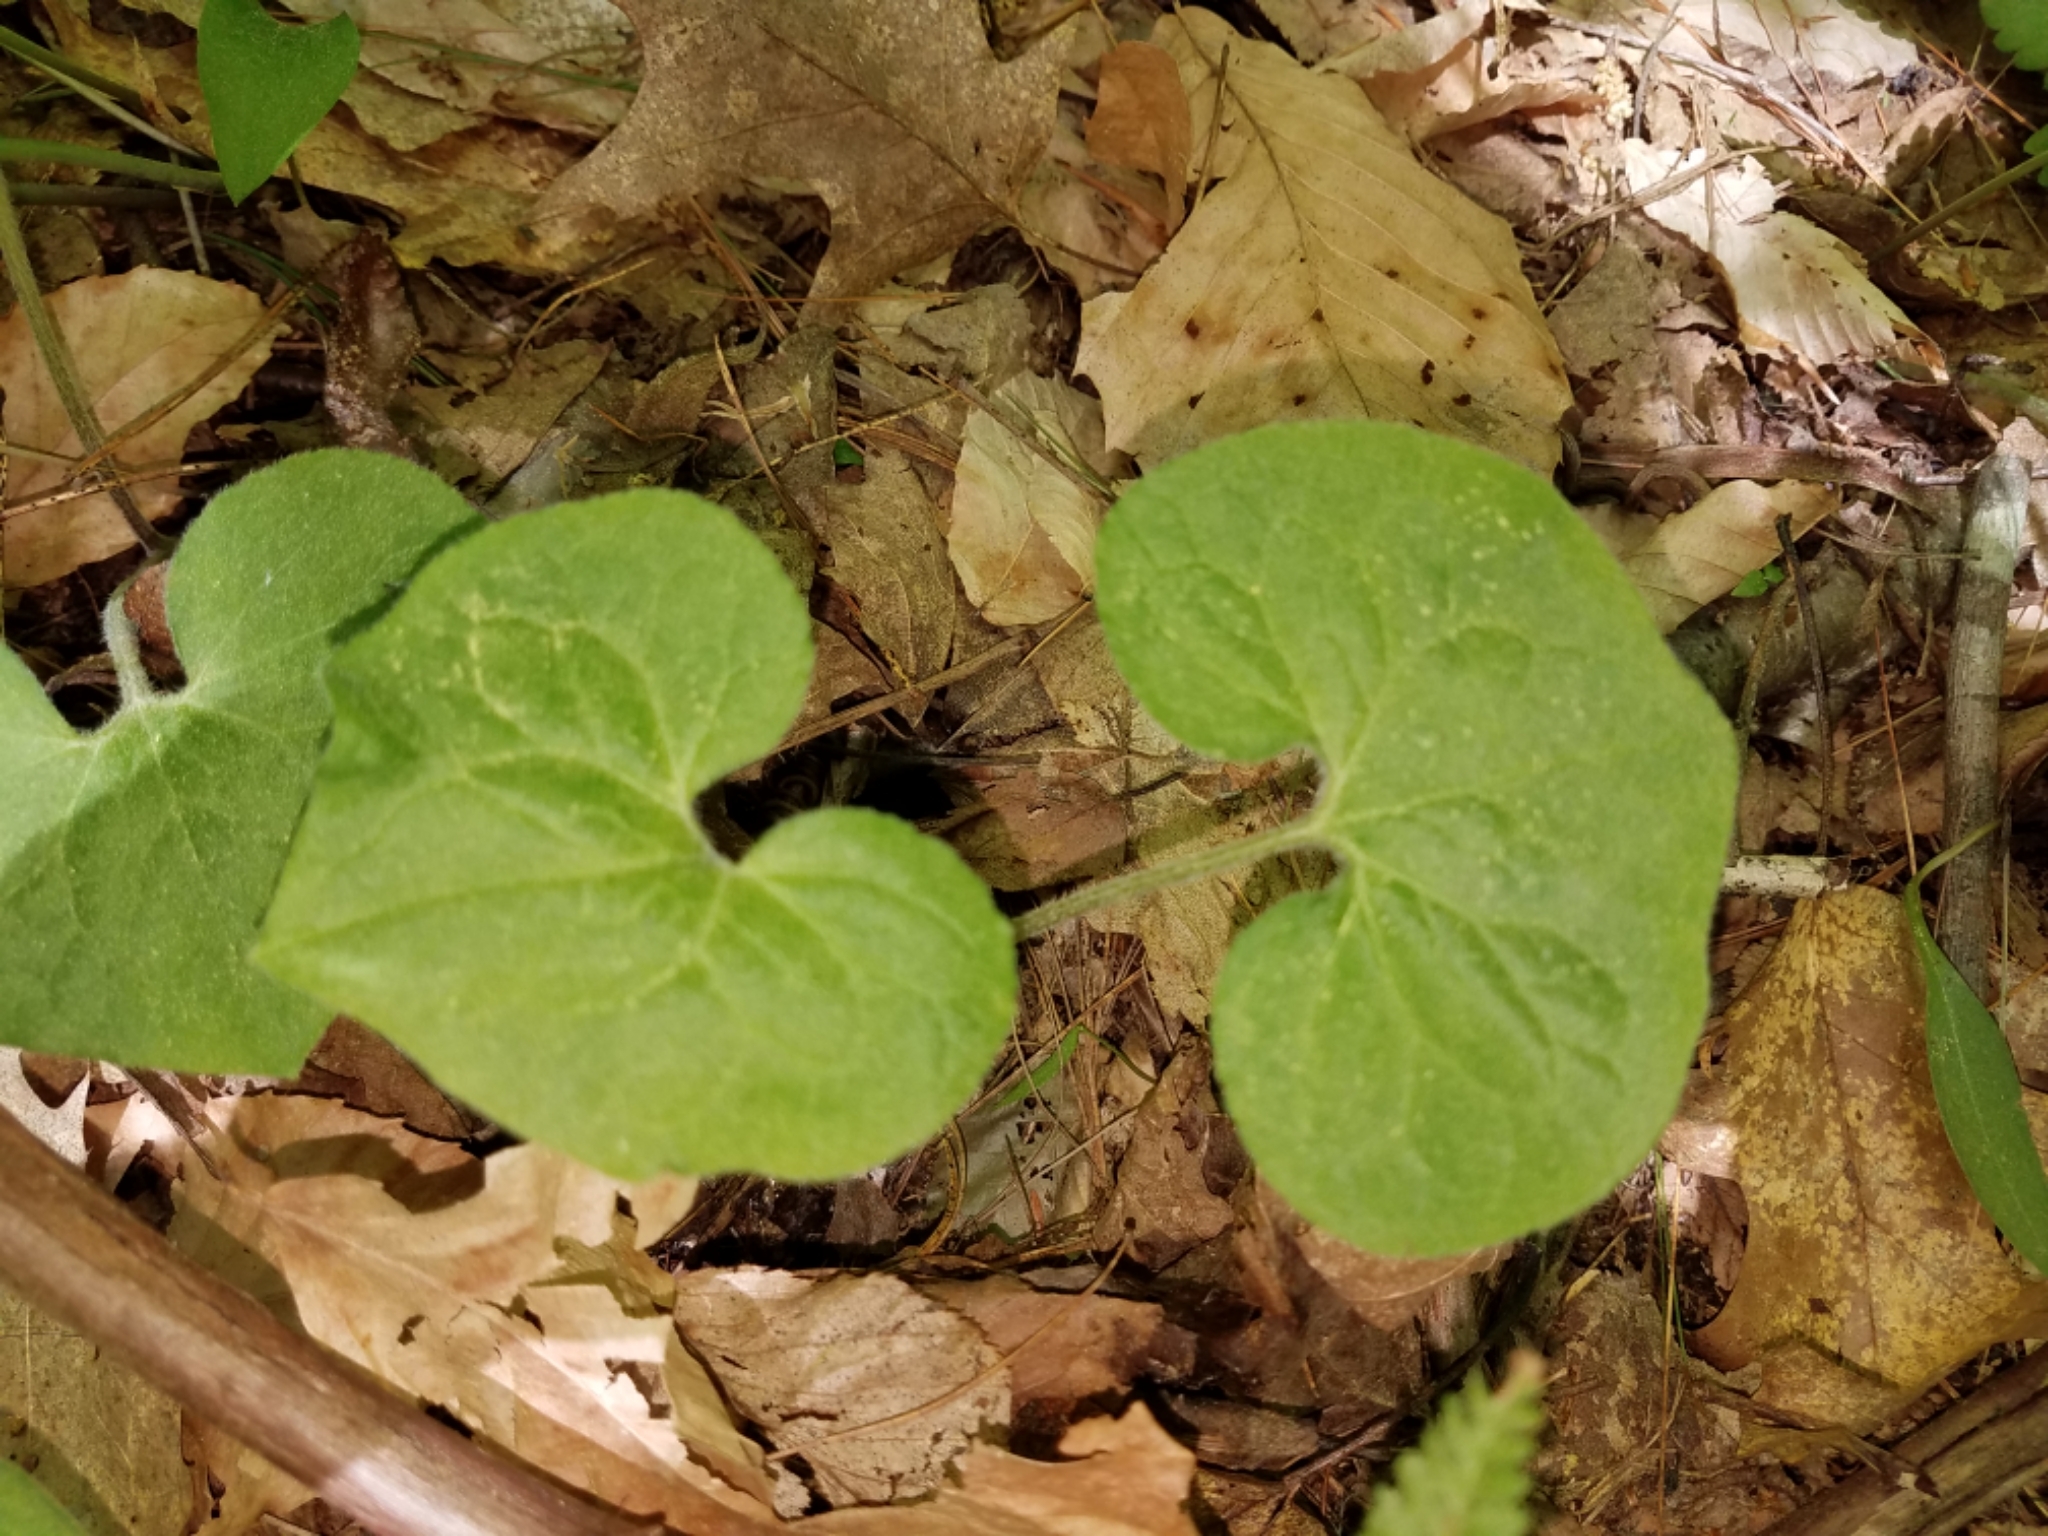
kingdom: Plantae
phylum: Tracheophyta
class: Magnoliopsida
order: Piperales
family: Aristolochiaceae
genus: Asarum
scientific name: Asarum canadense
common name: Wild ginger
